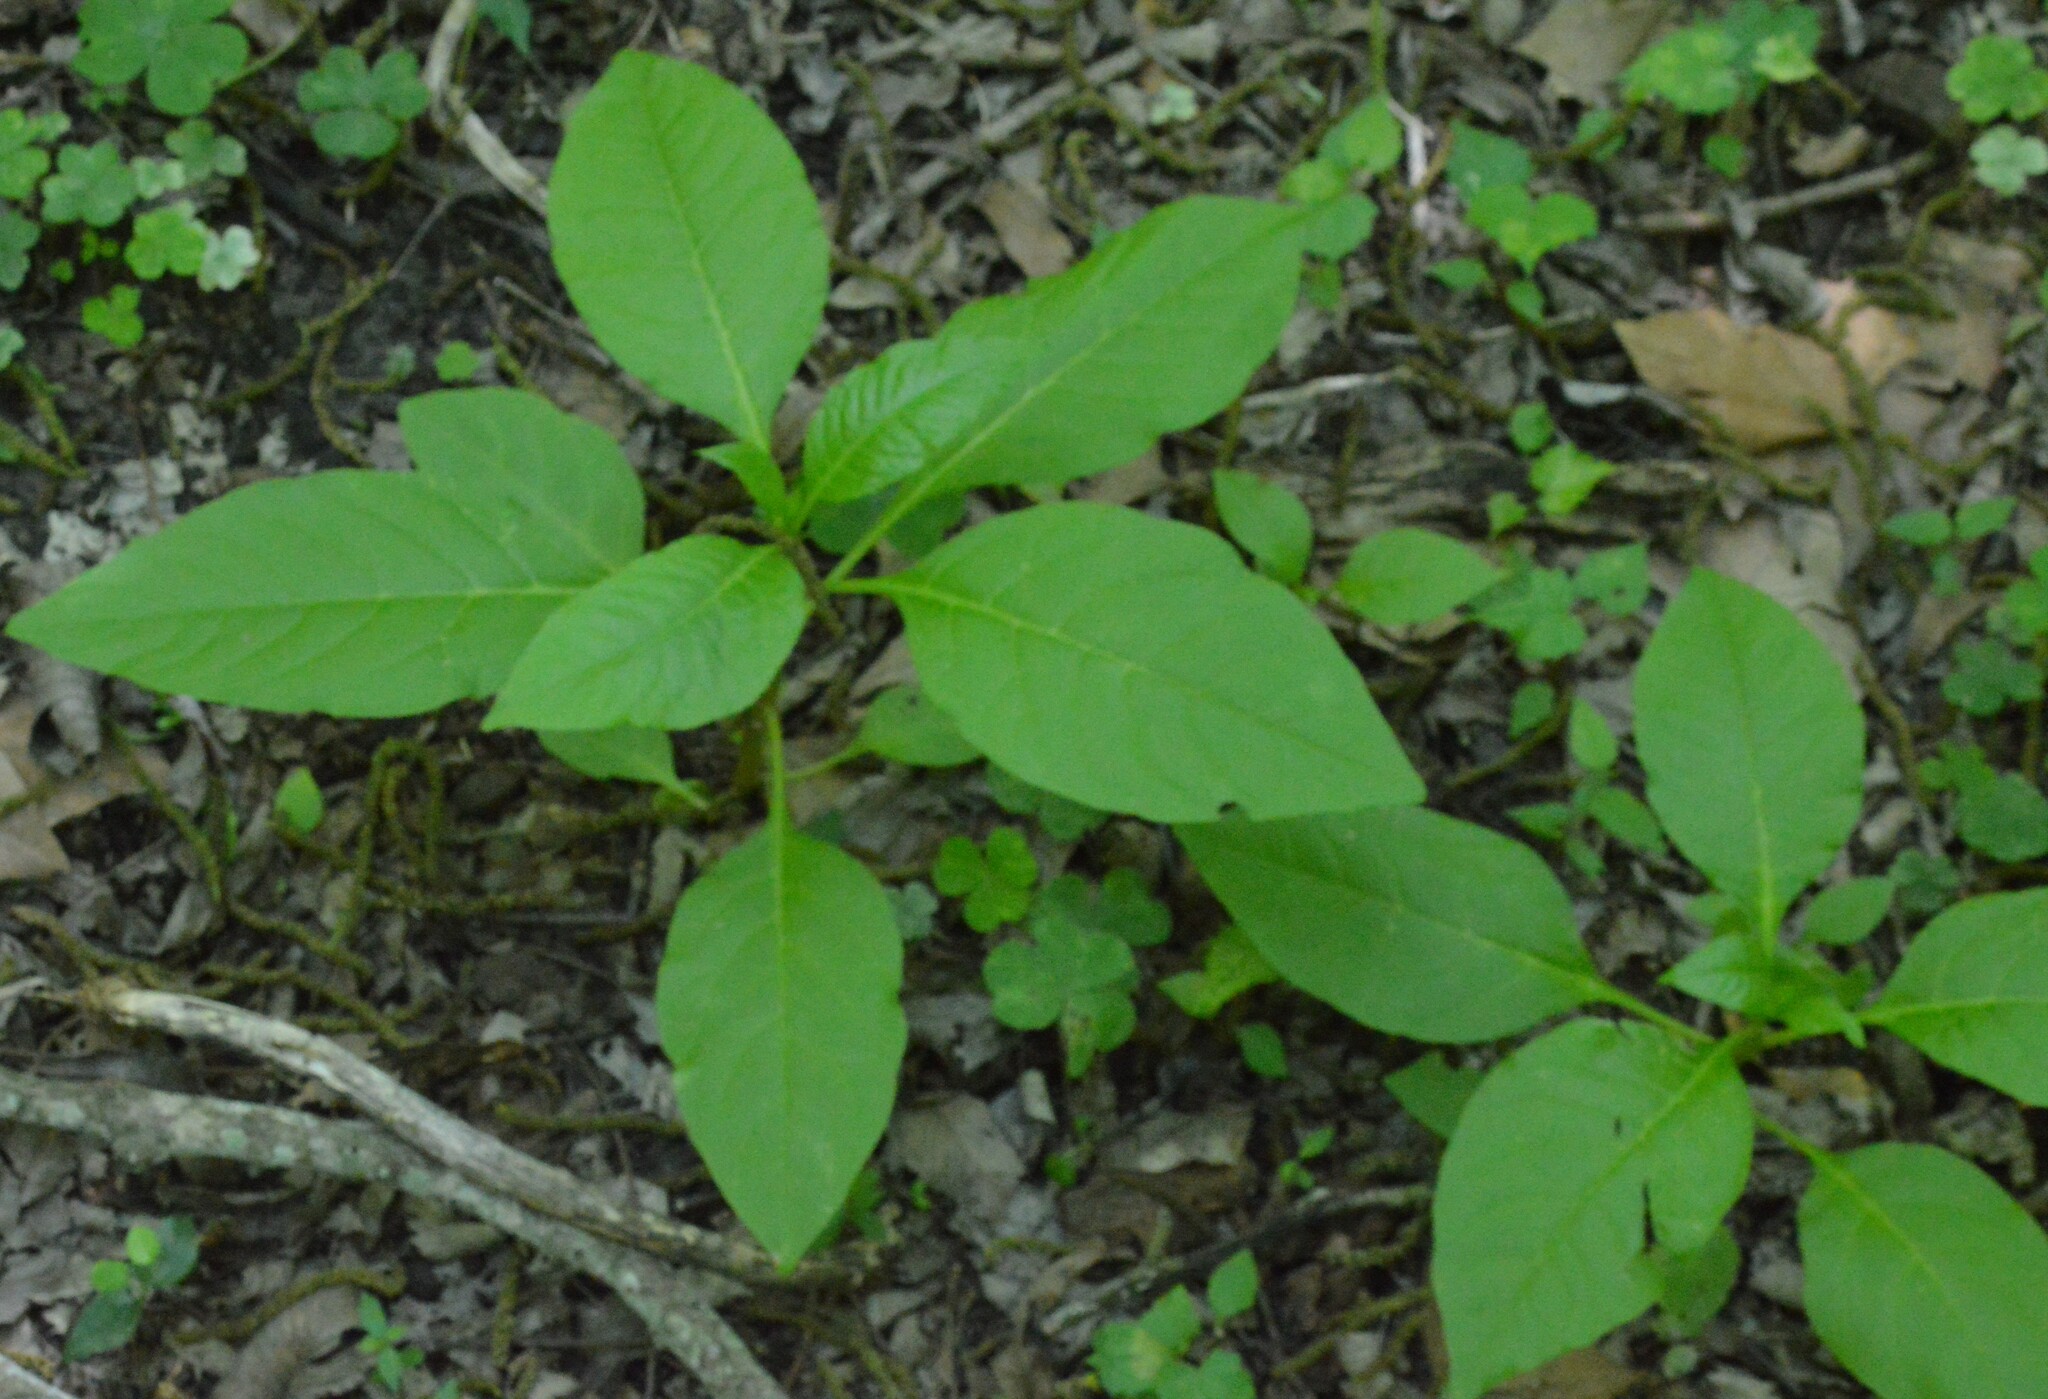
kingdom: Plantae
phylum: Tracheophyta
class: Magnoliopsida
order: Caryophyllales
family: Phytolaccaceae
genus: Phytolacca
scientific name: Phytolacca americana
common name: American pokeweed
